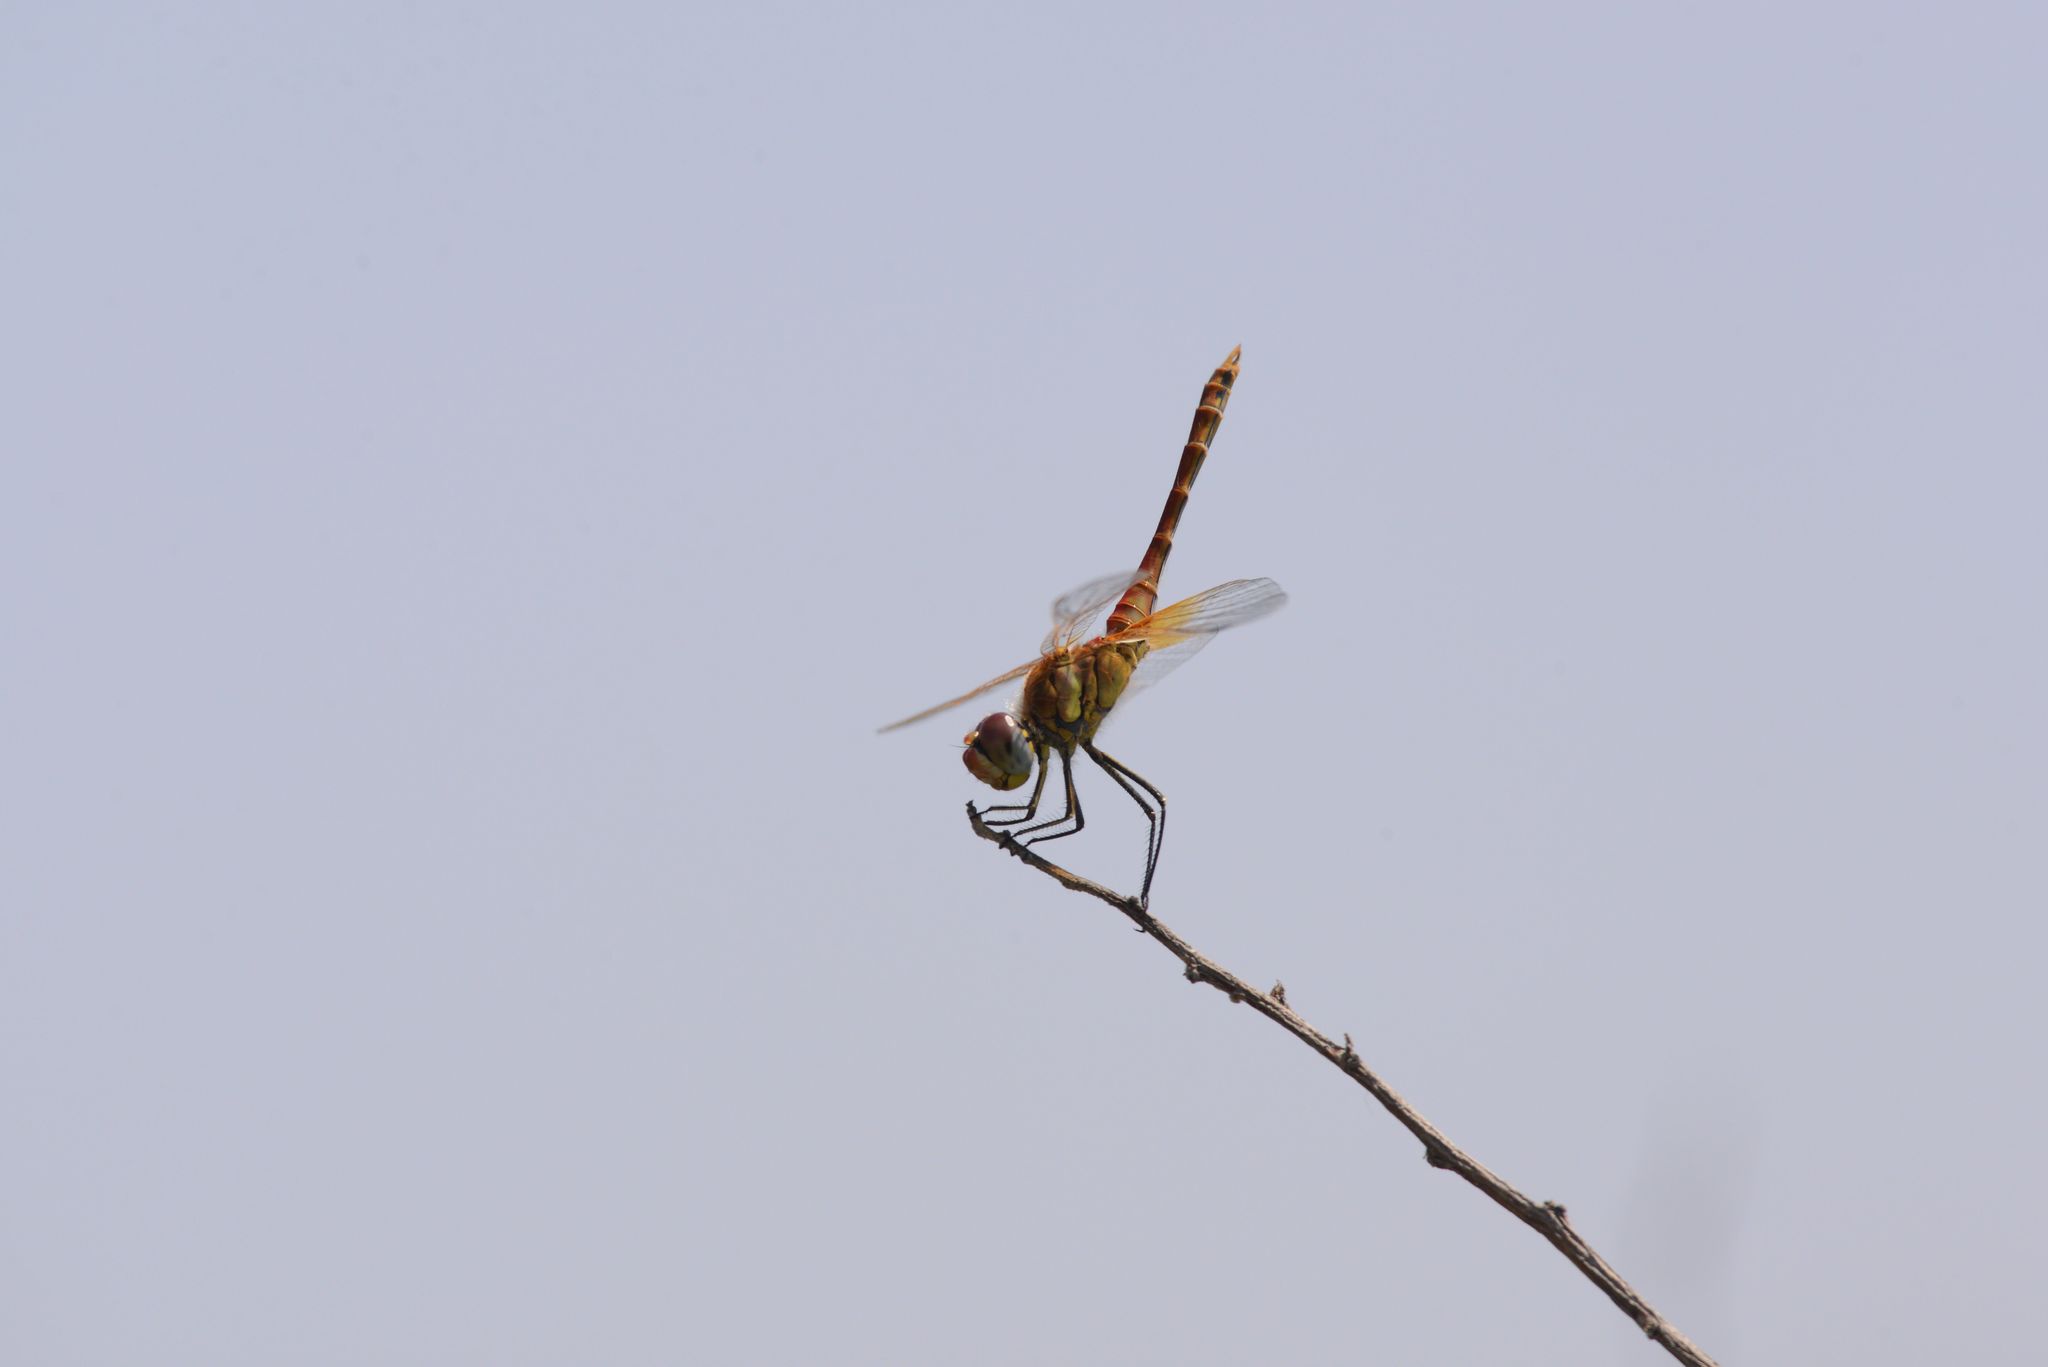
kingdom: Animalia
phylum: Arthropoda
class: Insecta
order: Odonata
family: Libellulidae
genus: Sympetrum
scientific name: Sympetrum fonscolombii
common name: Red-veined darter
